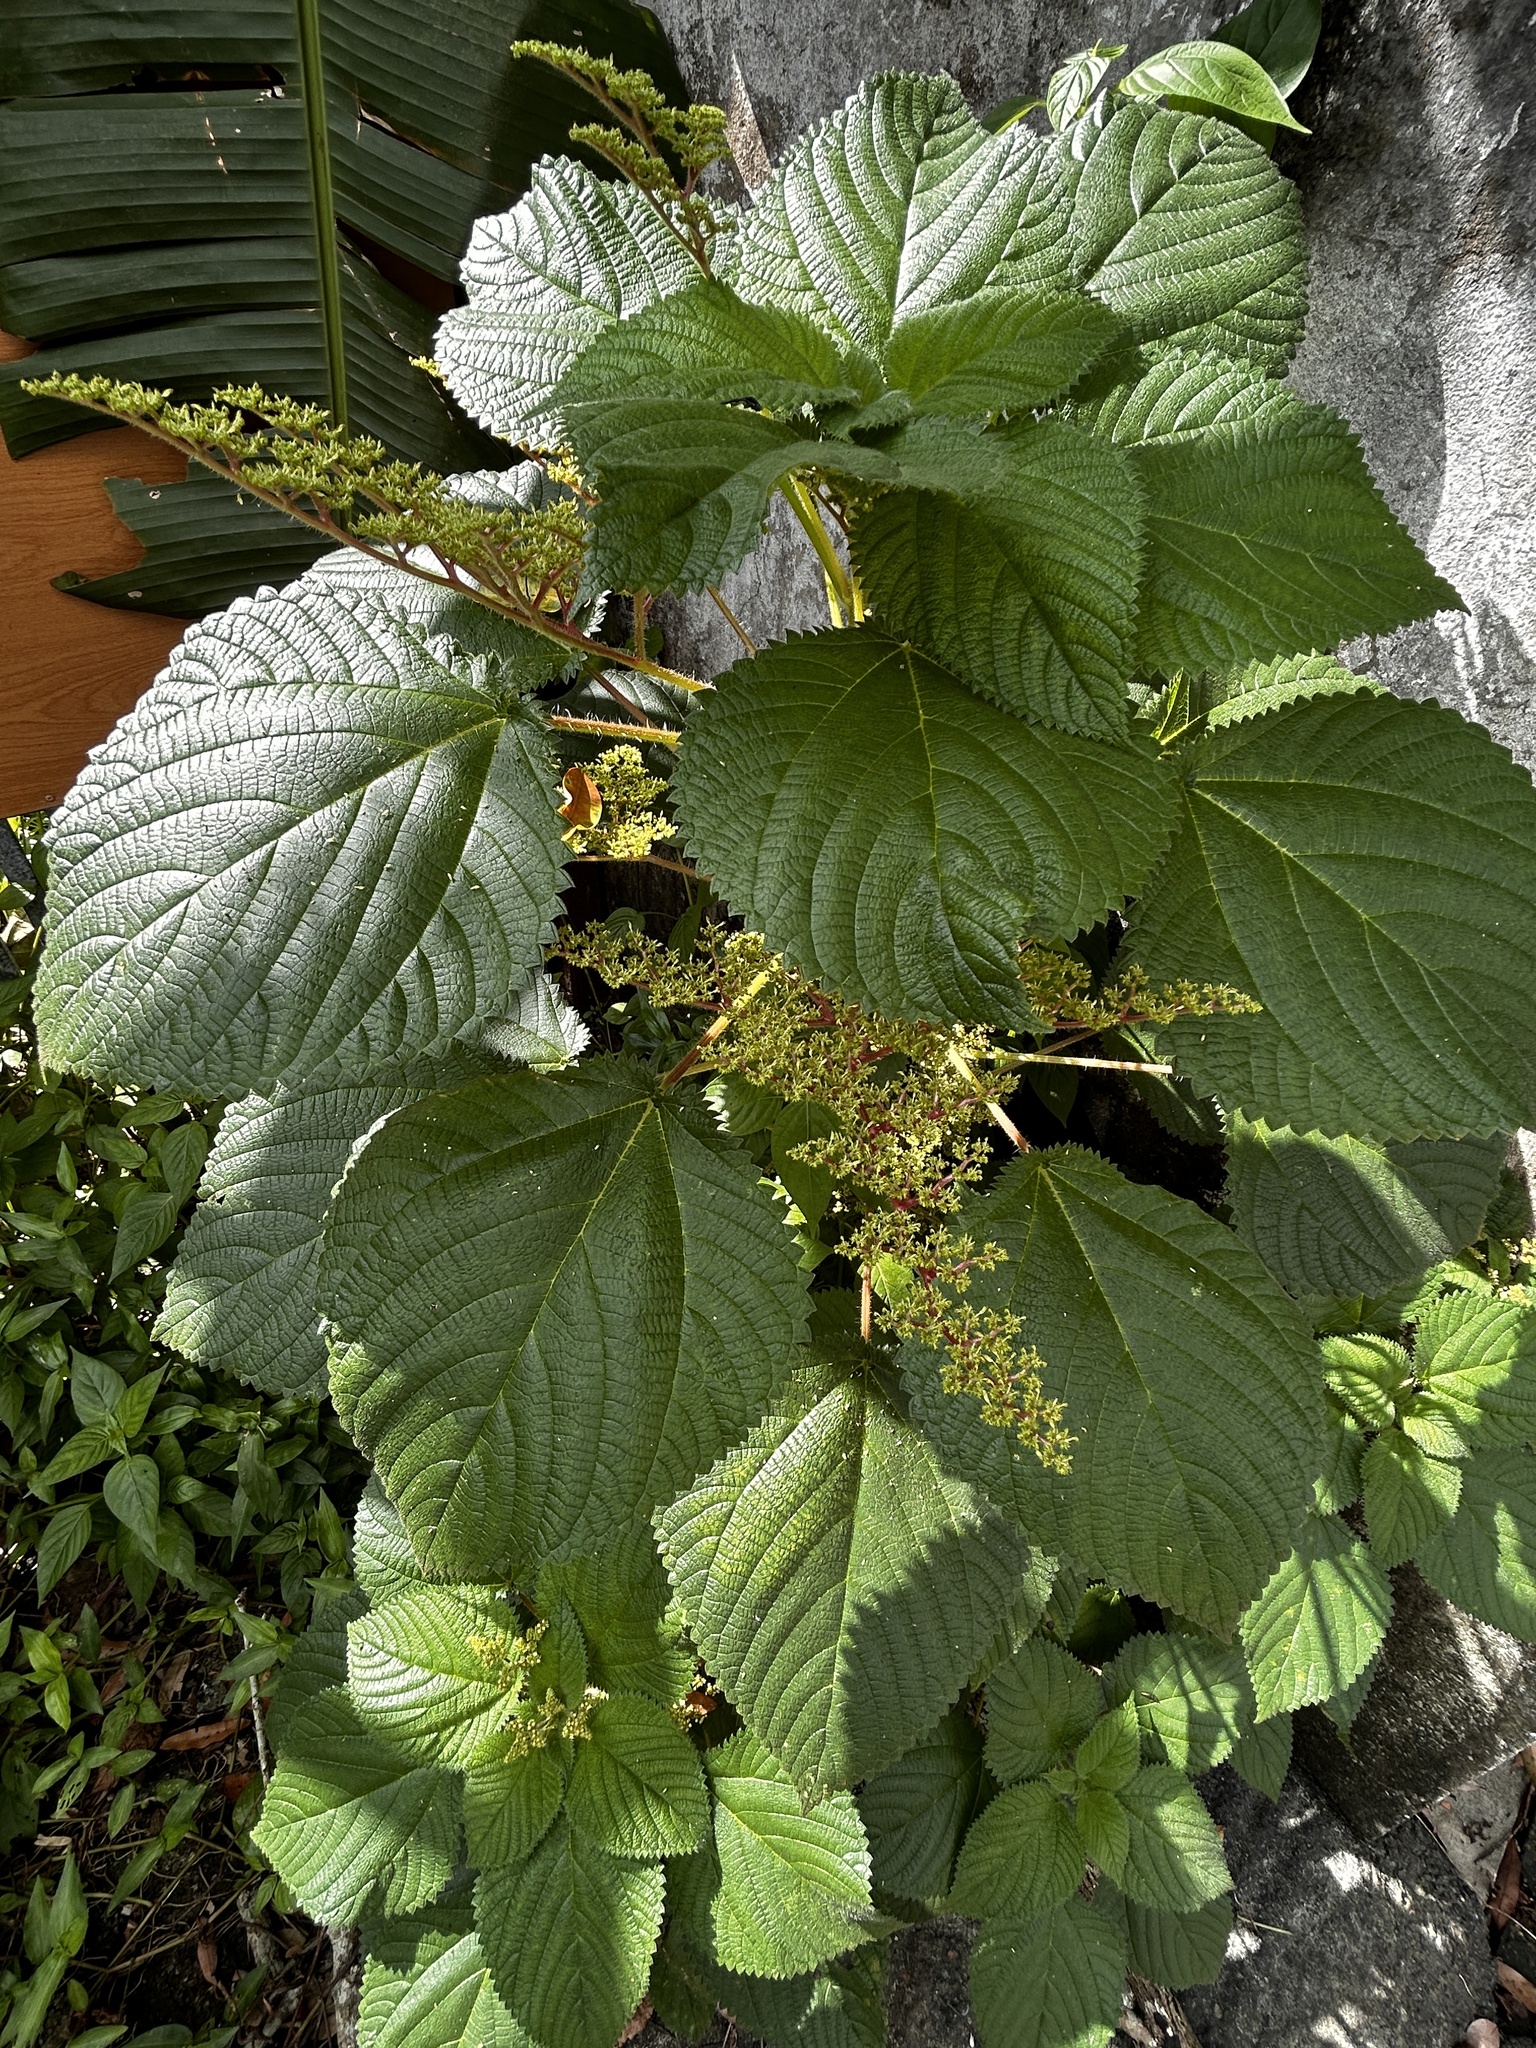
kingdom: Plantae
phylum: Tracheophyta
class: Magnoliopsida
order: Rosales
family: Urticaceae
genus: Laportea
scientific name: Laportea aestuans
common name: West indian woodnettle
